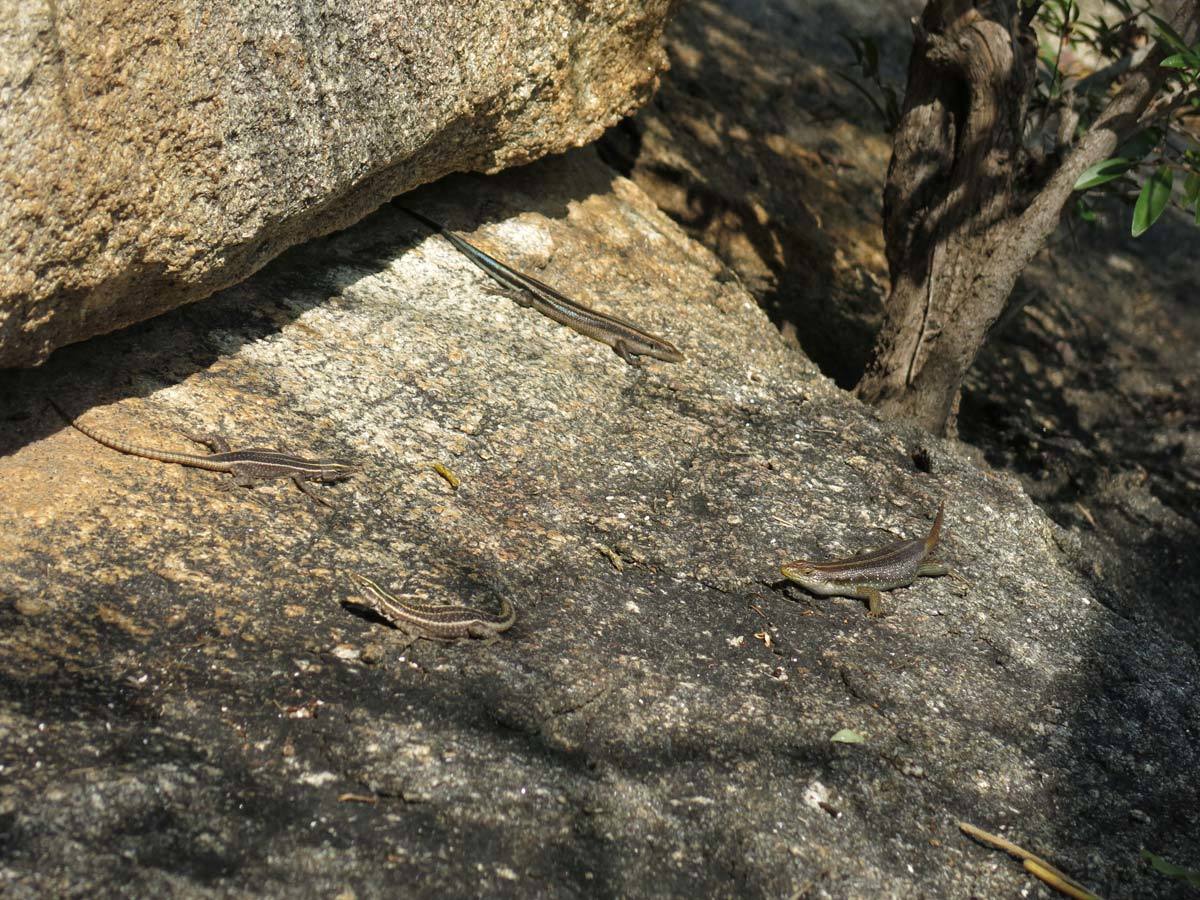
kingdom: Animalia
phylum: Chordata
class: Squamata
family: Cordylidae
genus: Platysaurus
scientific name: Platysaurus intermedius
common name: Common flat lizard
